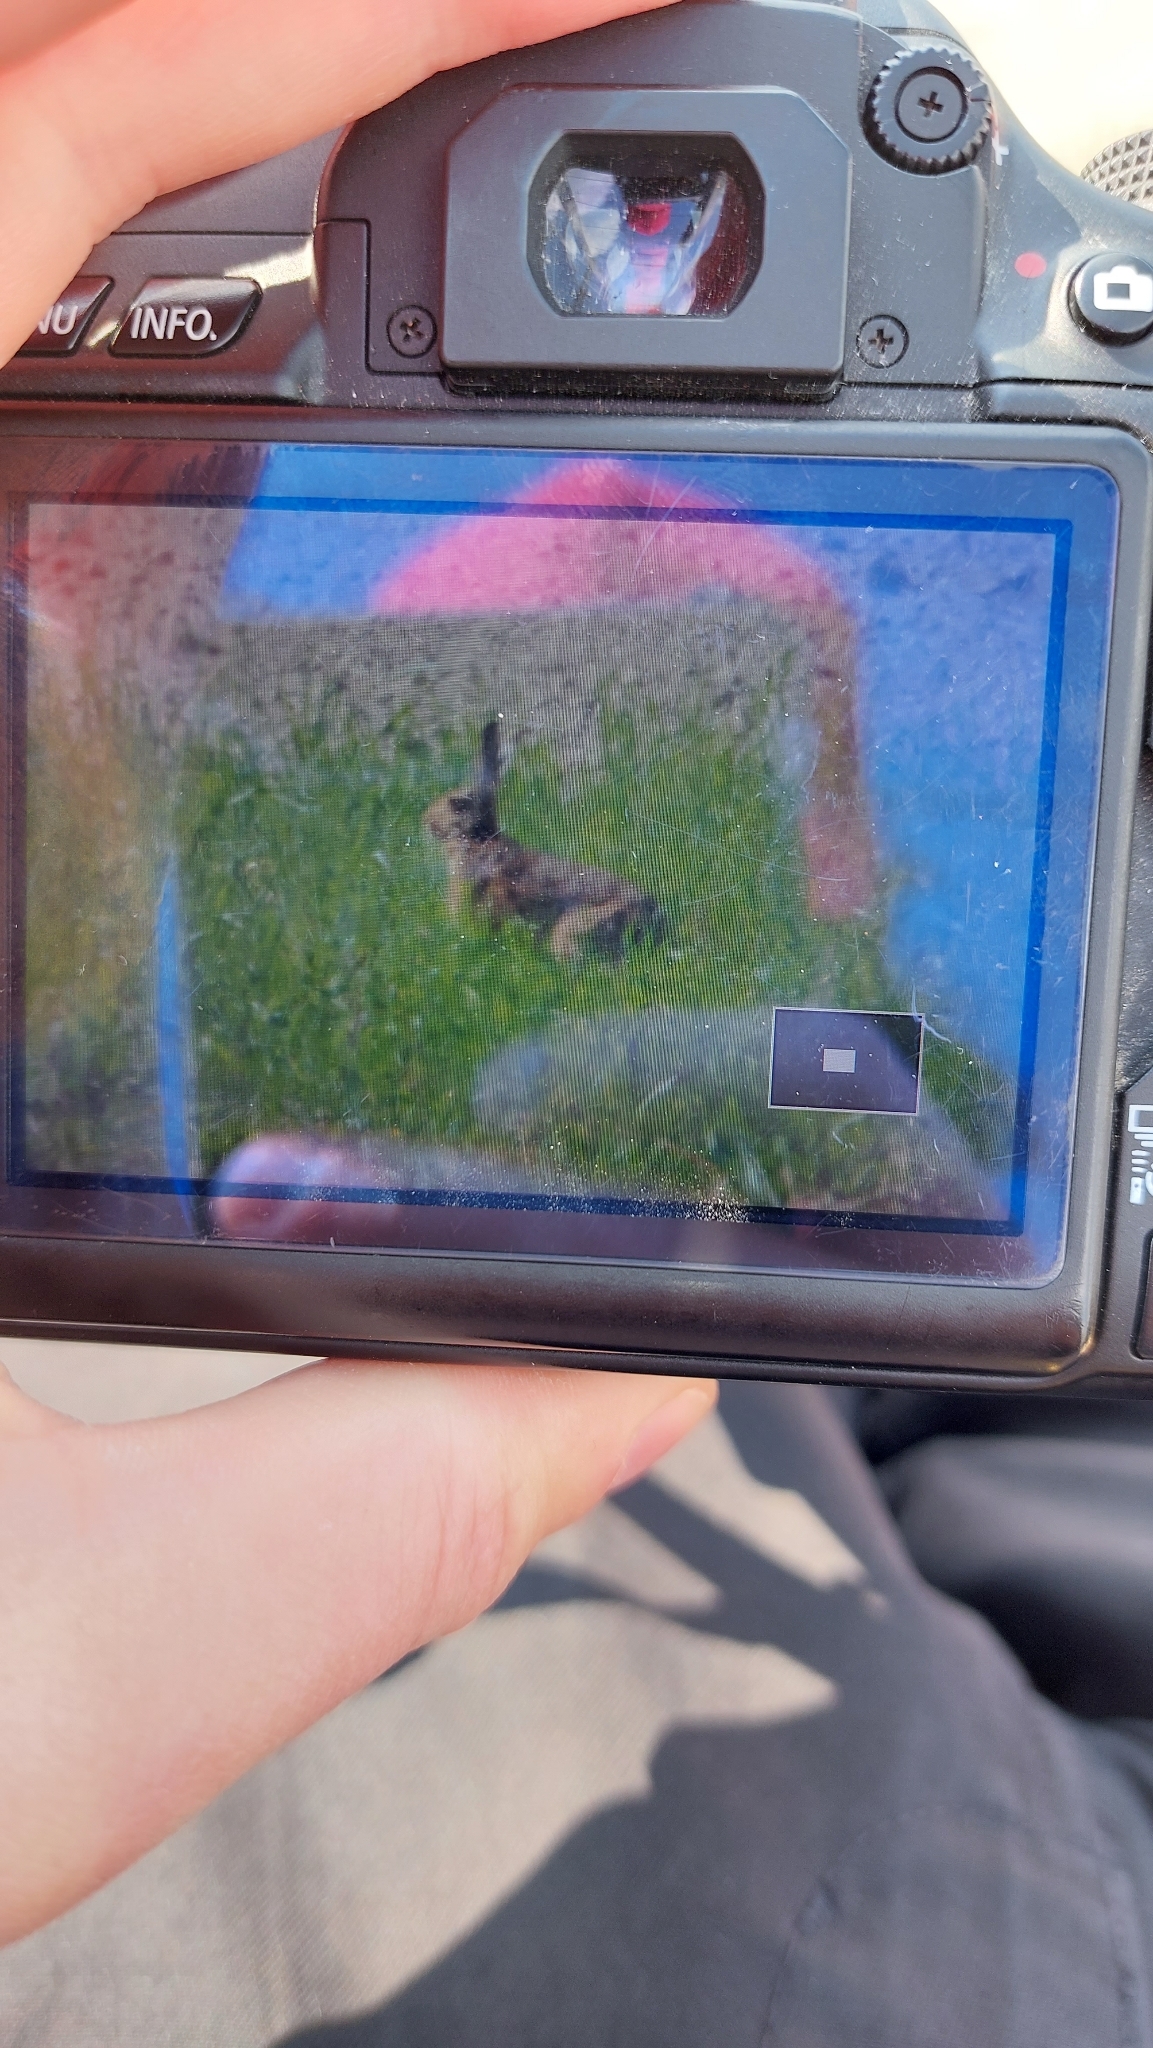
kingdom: Animalia
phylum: Chordata
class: Mammalia
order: Lagomorpha
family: Leporidae
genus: Lepus
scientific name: Lepus europaeus
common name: European hare
